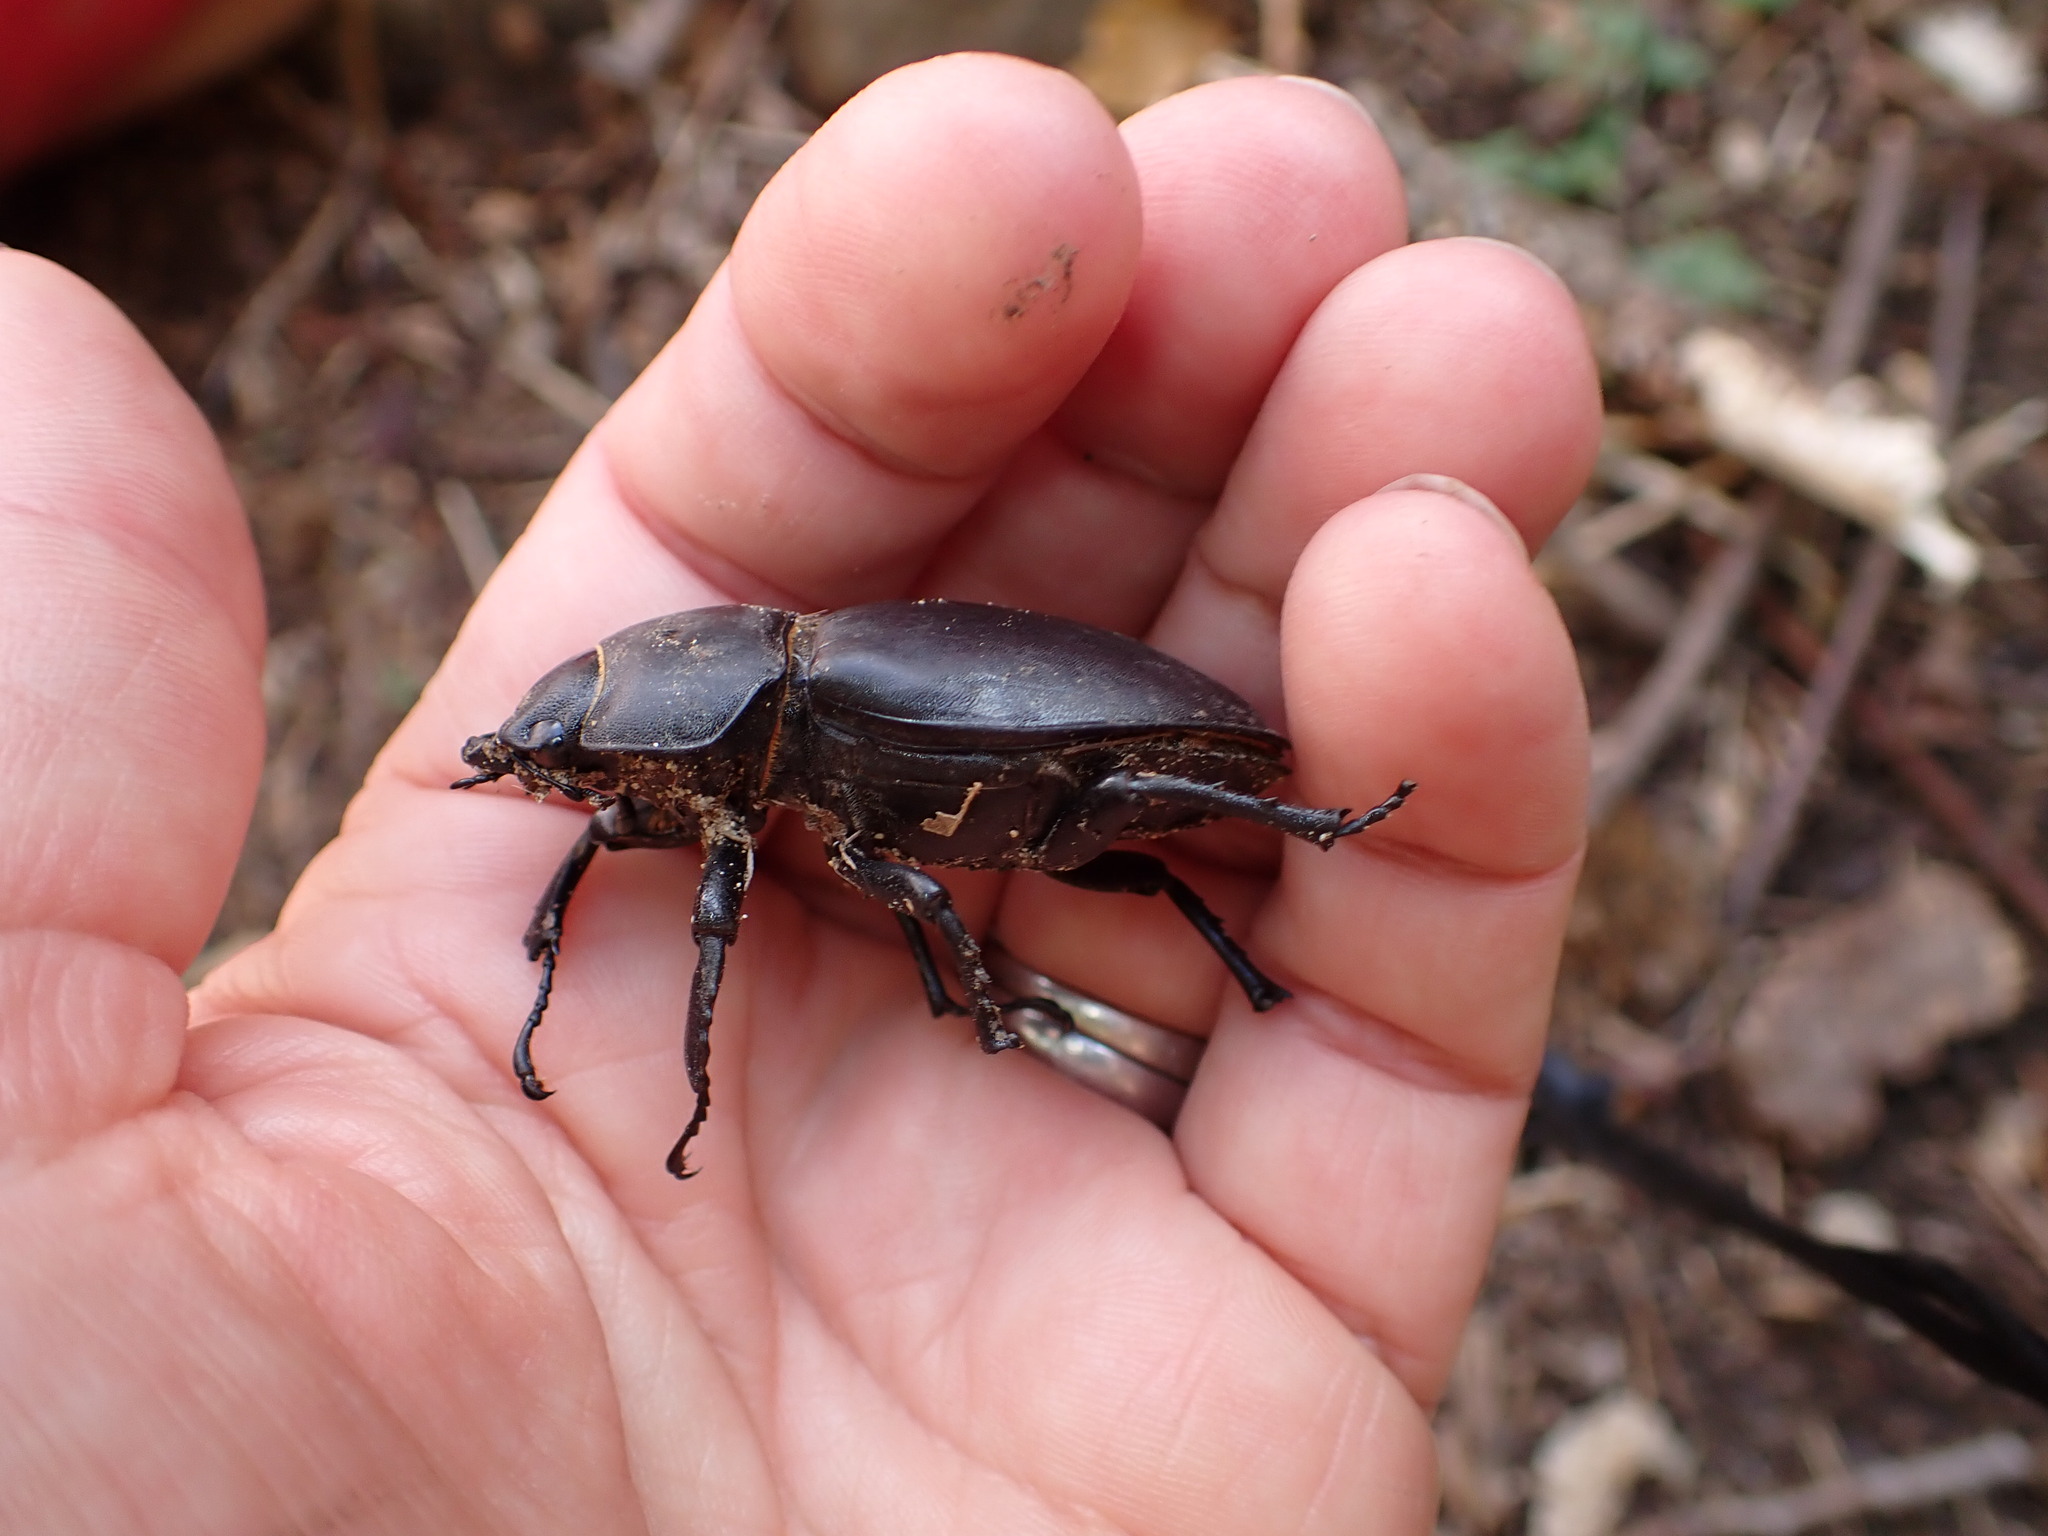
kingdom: Animalia
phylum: Arthropoda
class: Insecta
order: Coleoptera
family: Lucanidae
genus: Lucanus
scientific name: Lucanus tetraodon
